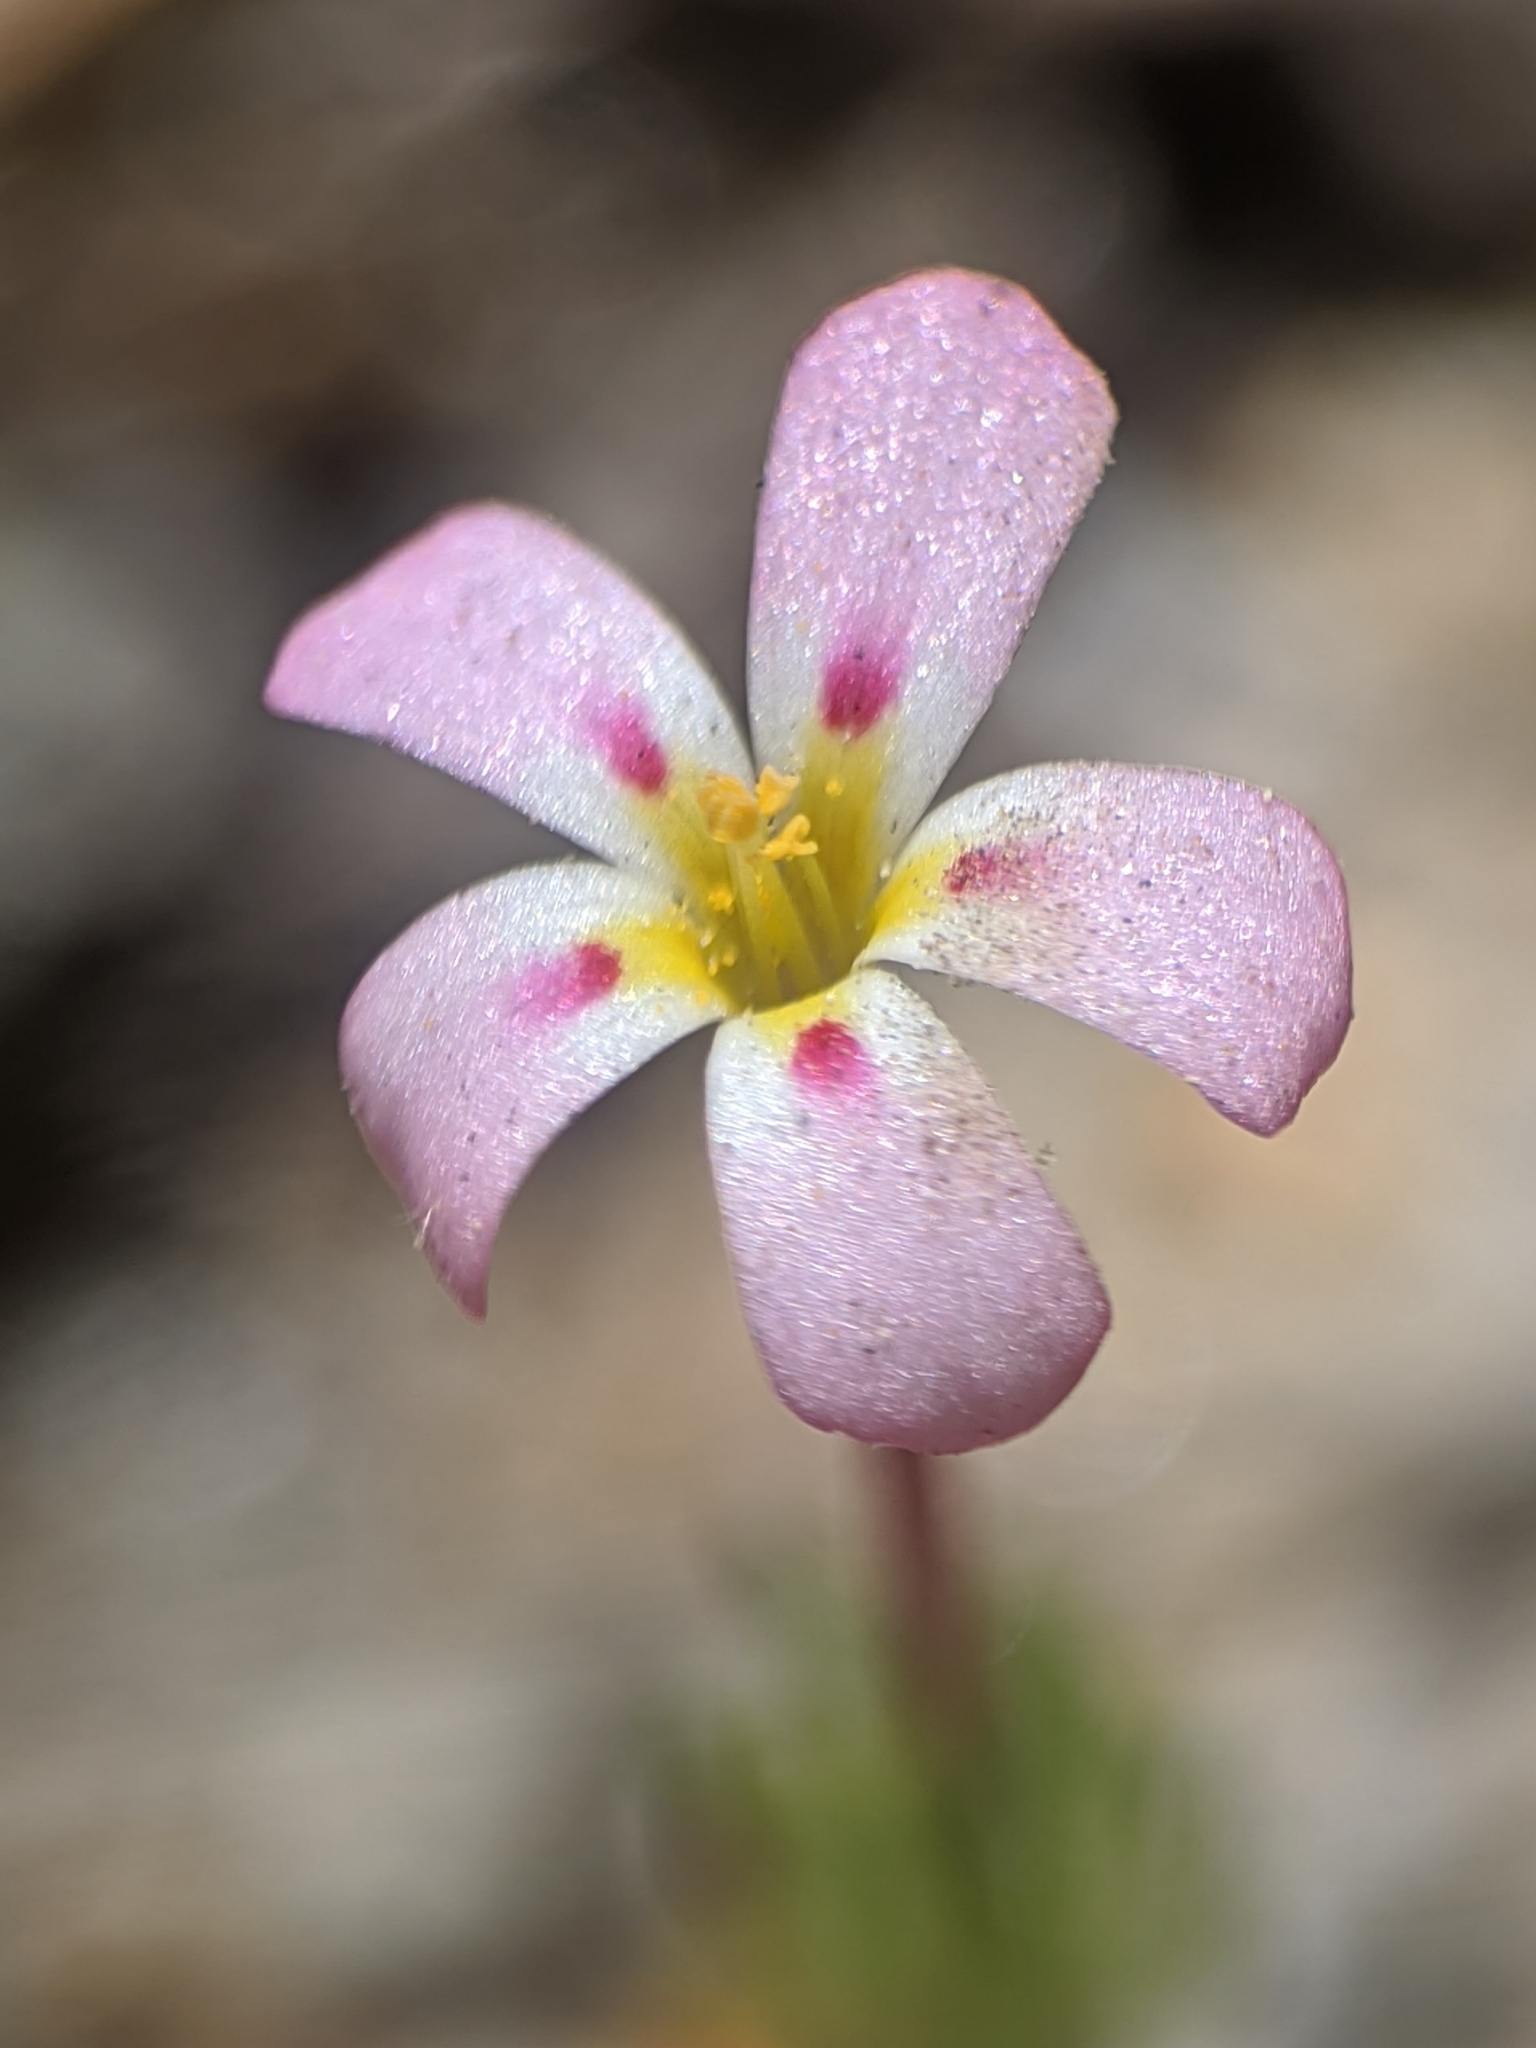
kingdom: Plantae
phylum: Tracheophyta
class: Magnoliopsida
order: Ericales
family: Polemoniaceae
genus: Leptosiphon
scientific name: Leptosiphon ciliatus
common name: Whiskerbrush
